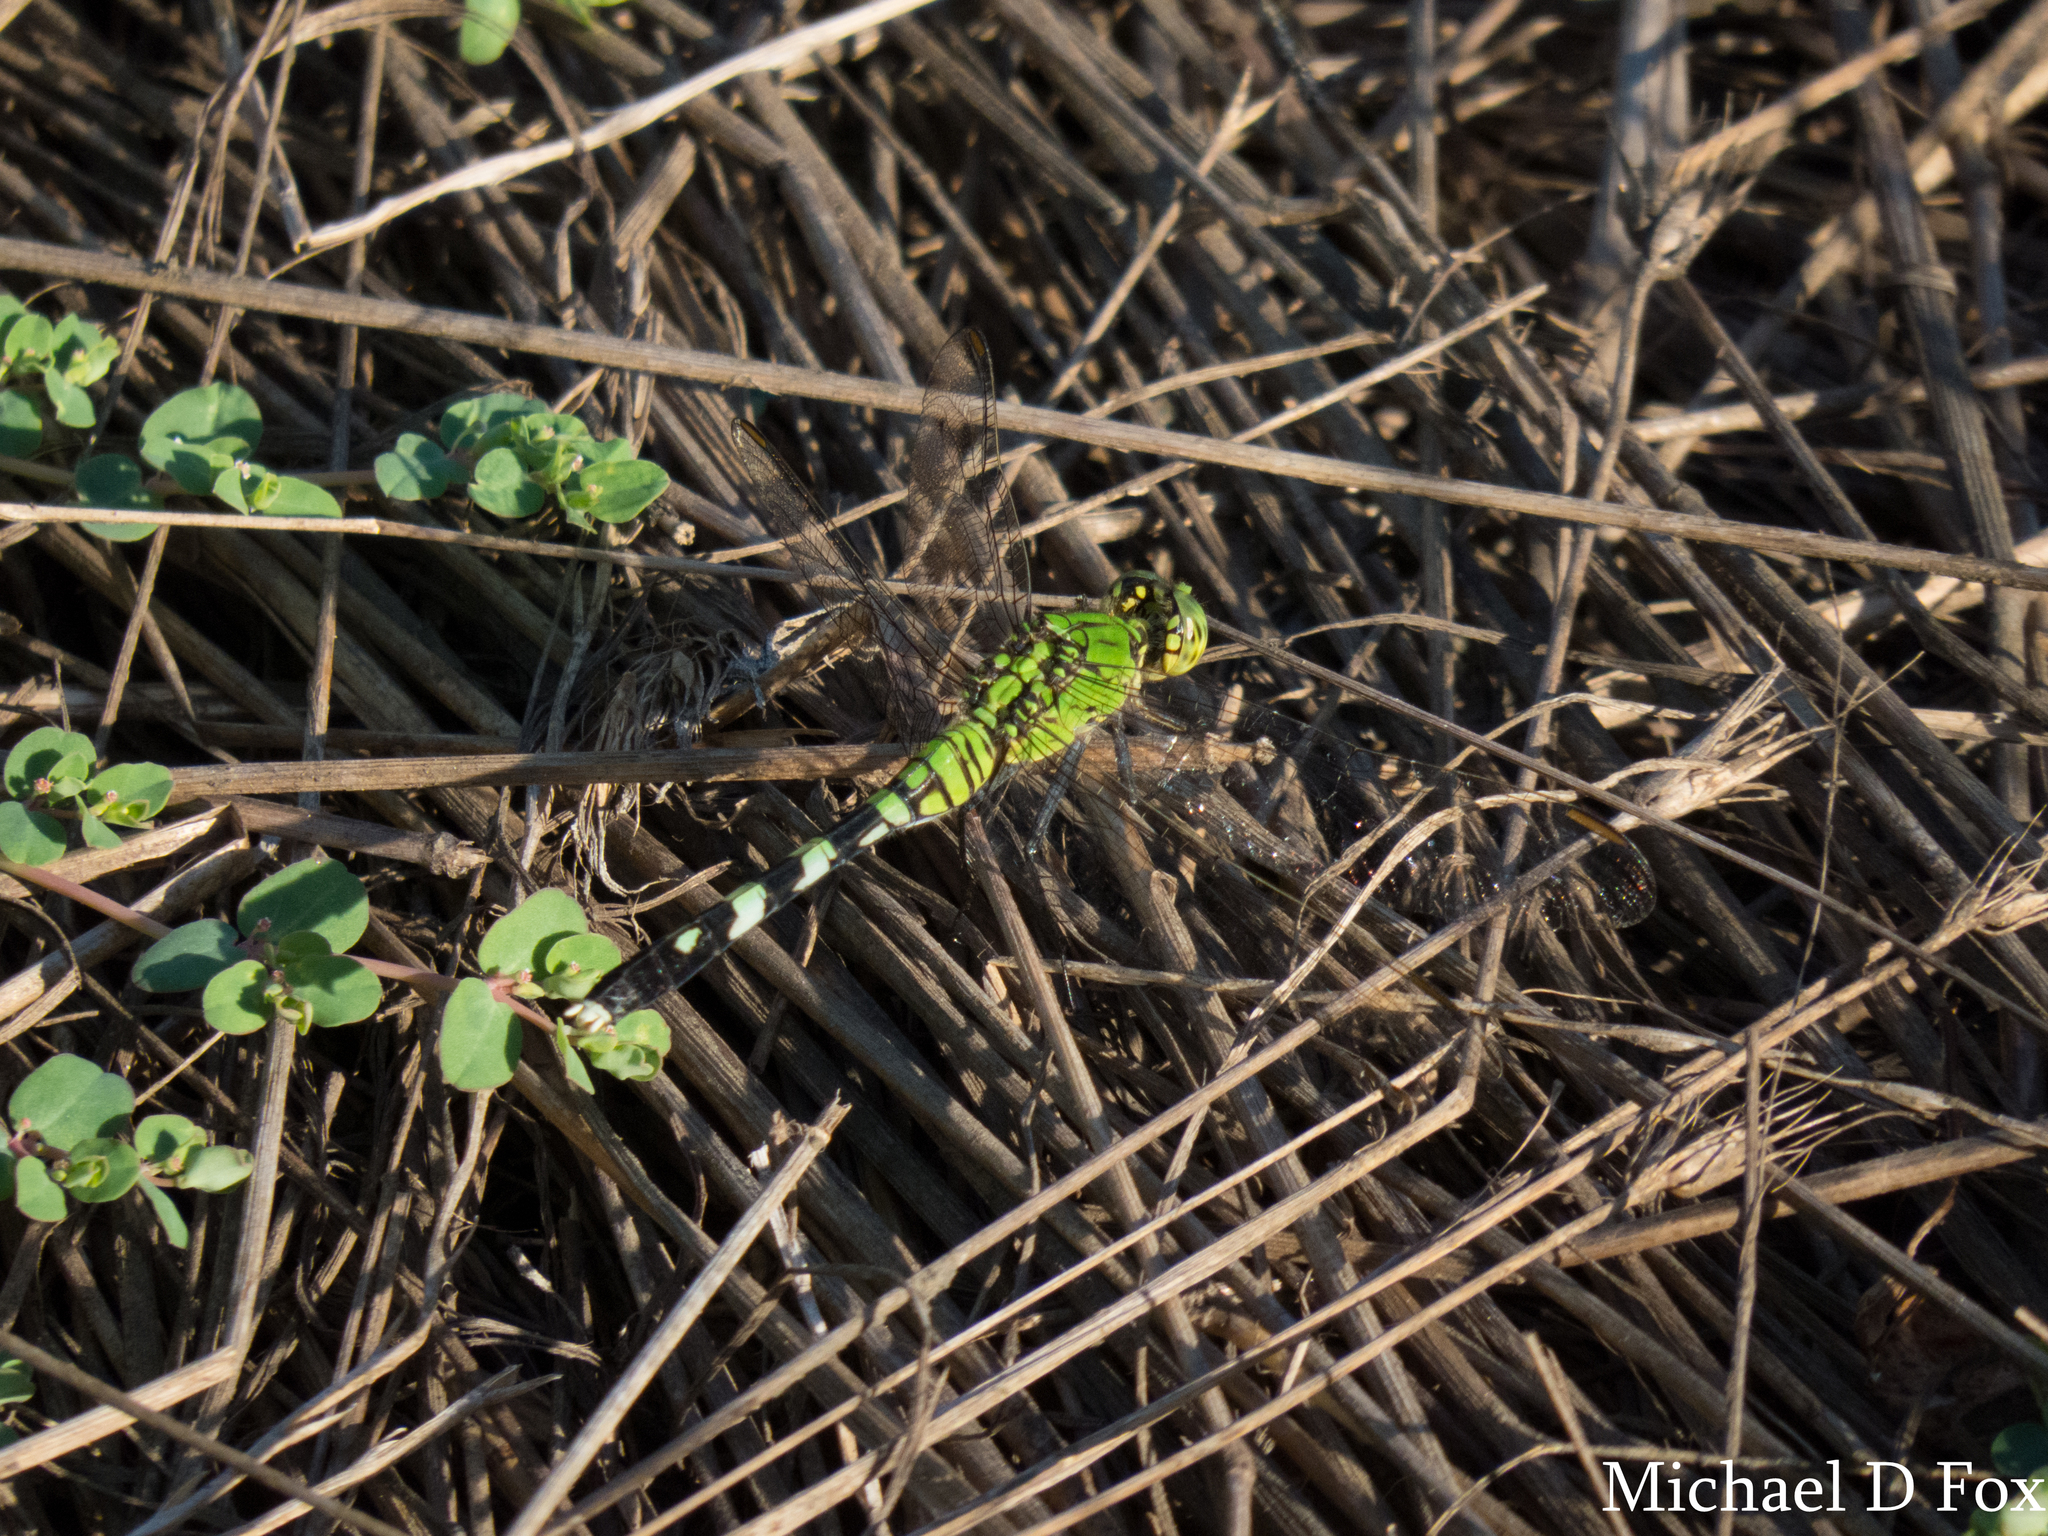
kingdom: Animalia
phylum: Arthropoda
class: Insecta
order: Odonata
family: Libellulidae
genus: Erythemis
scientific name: Erythemis simplicicollis
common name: Eastern pondhawk
